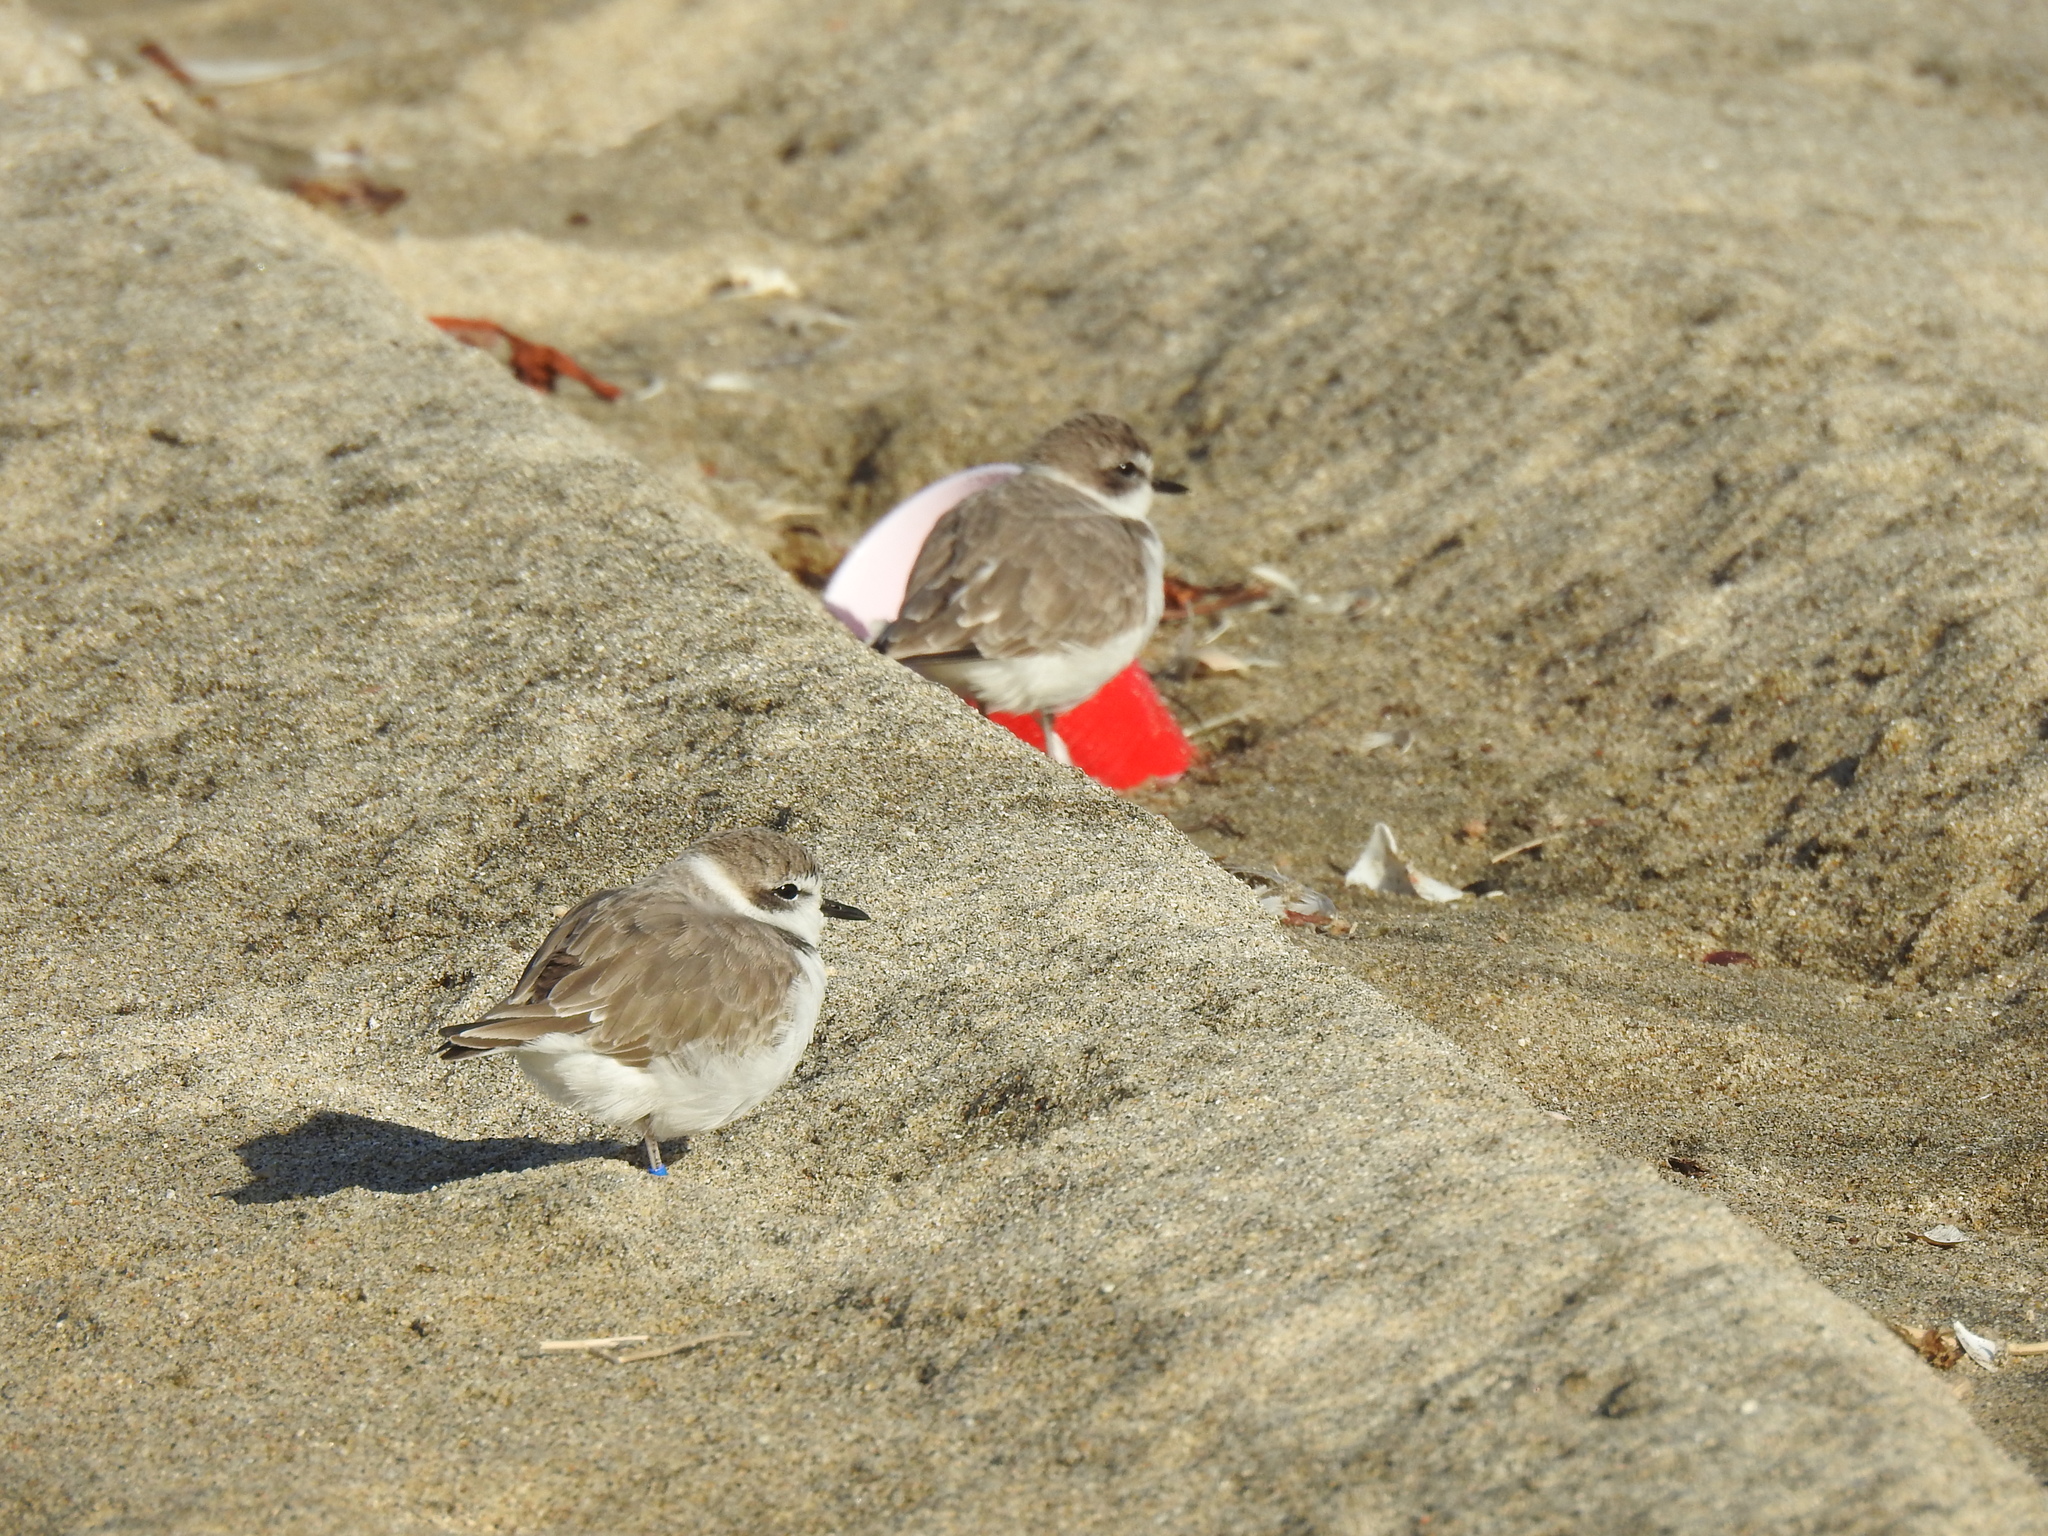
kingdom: Animalia
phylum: Chordata
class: Aves
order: Charadriiformes
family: Charadriidae
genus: Anarhynchus
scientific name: Anarhynchus
